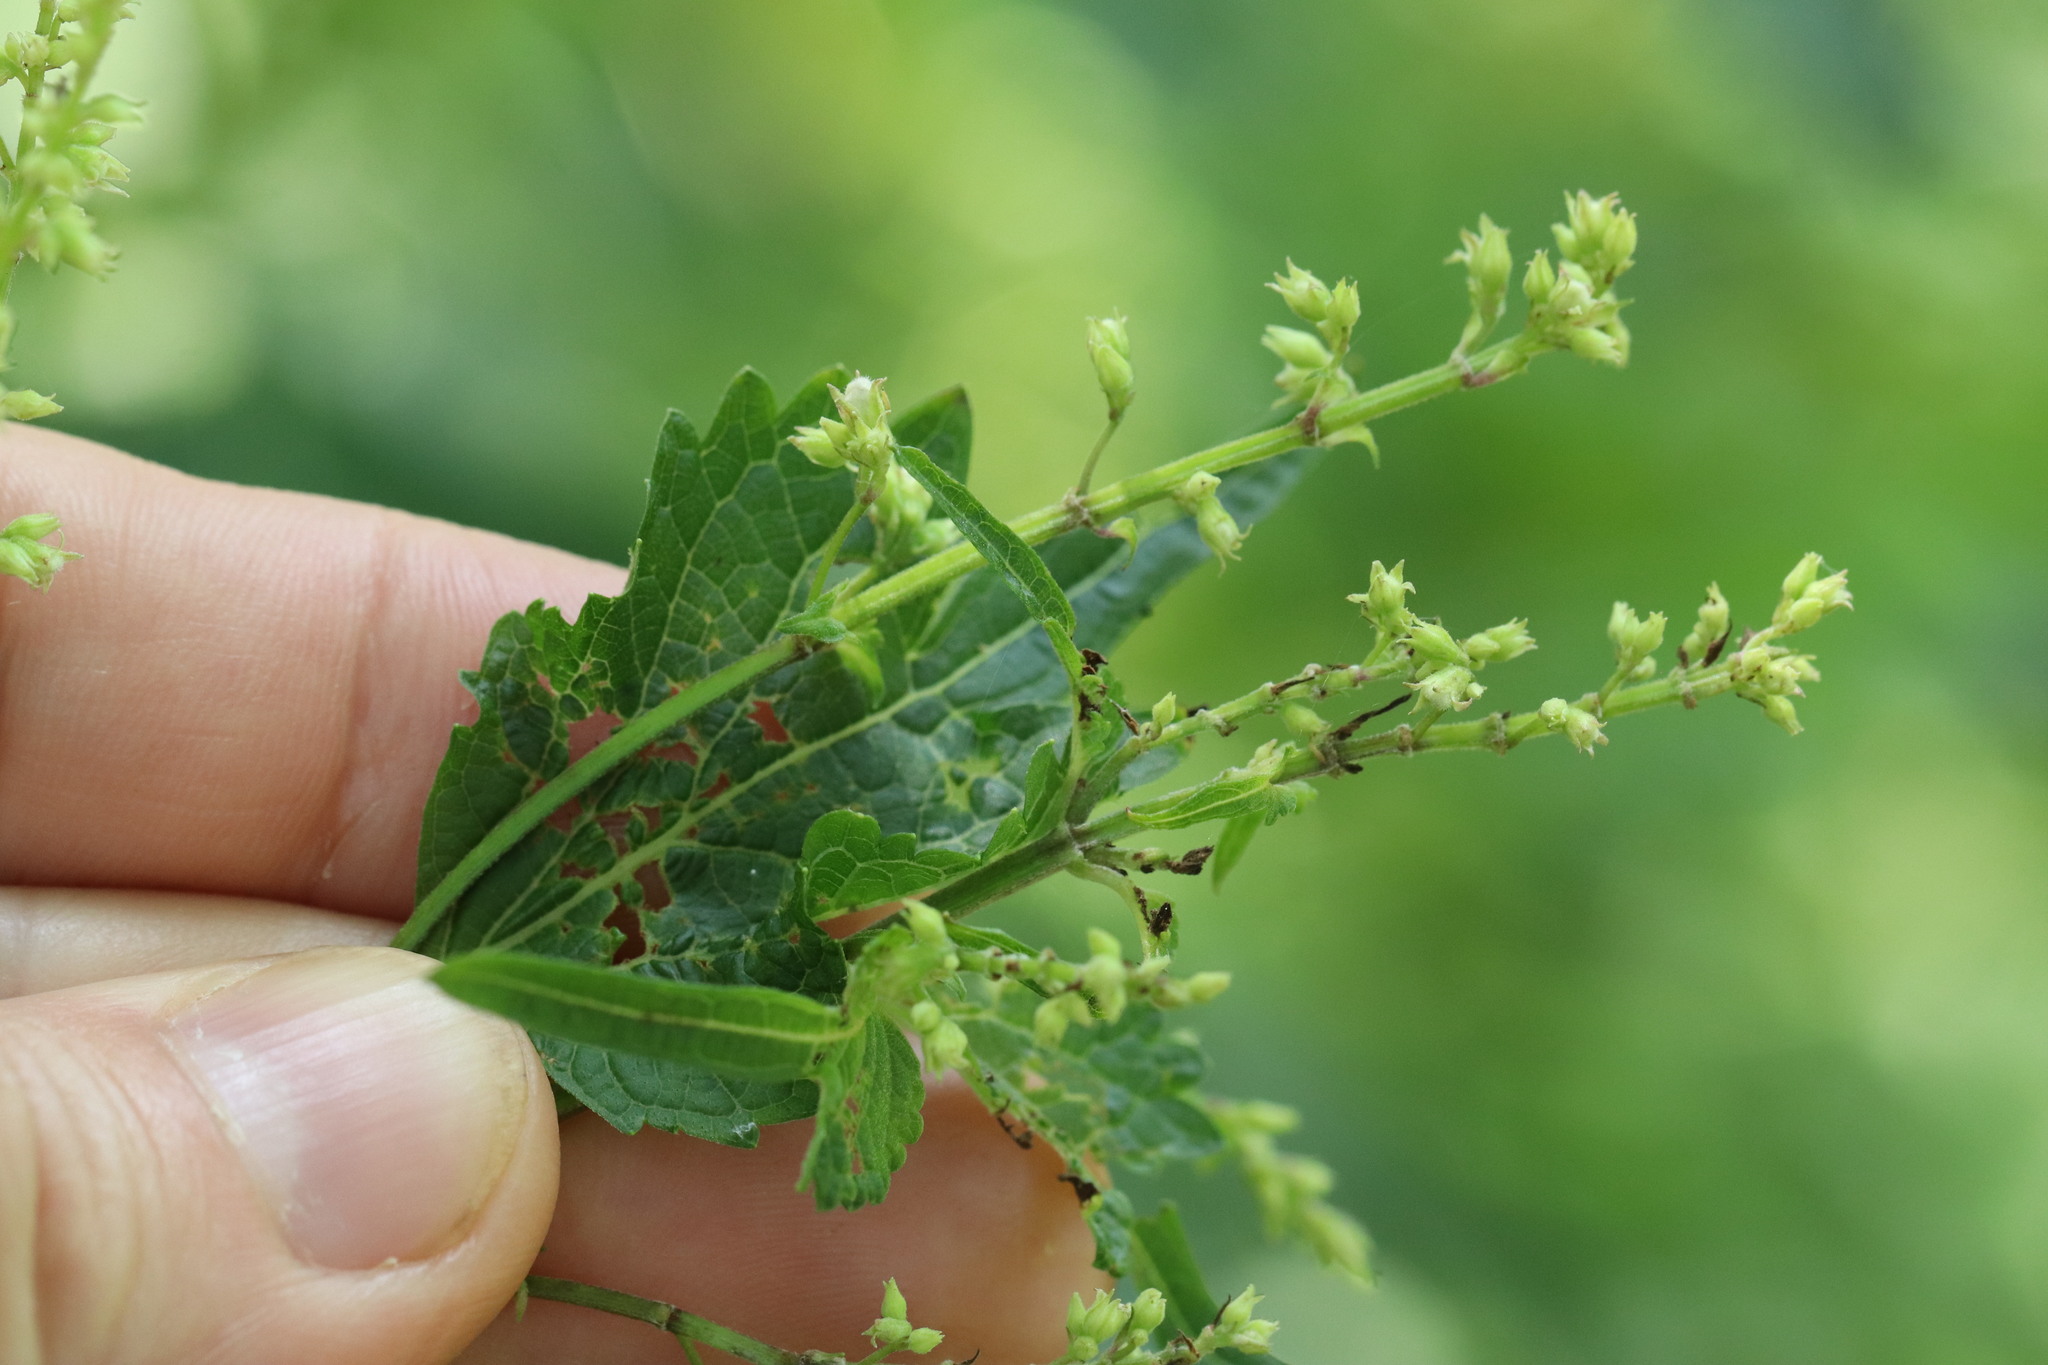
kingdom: Plantae
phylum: Tracheophyta
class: Magnoliopsida
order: Lamiales
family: Lamiaceae
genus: Isodon
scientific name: Isodon excisus
